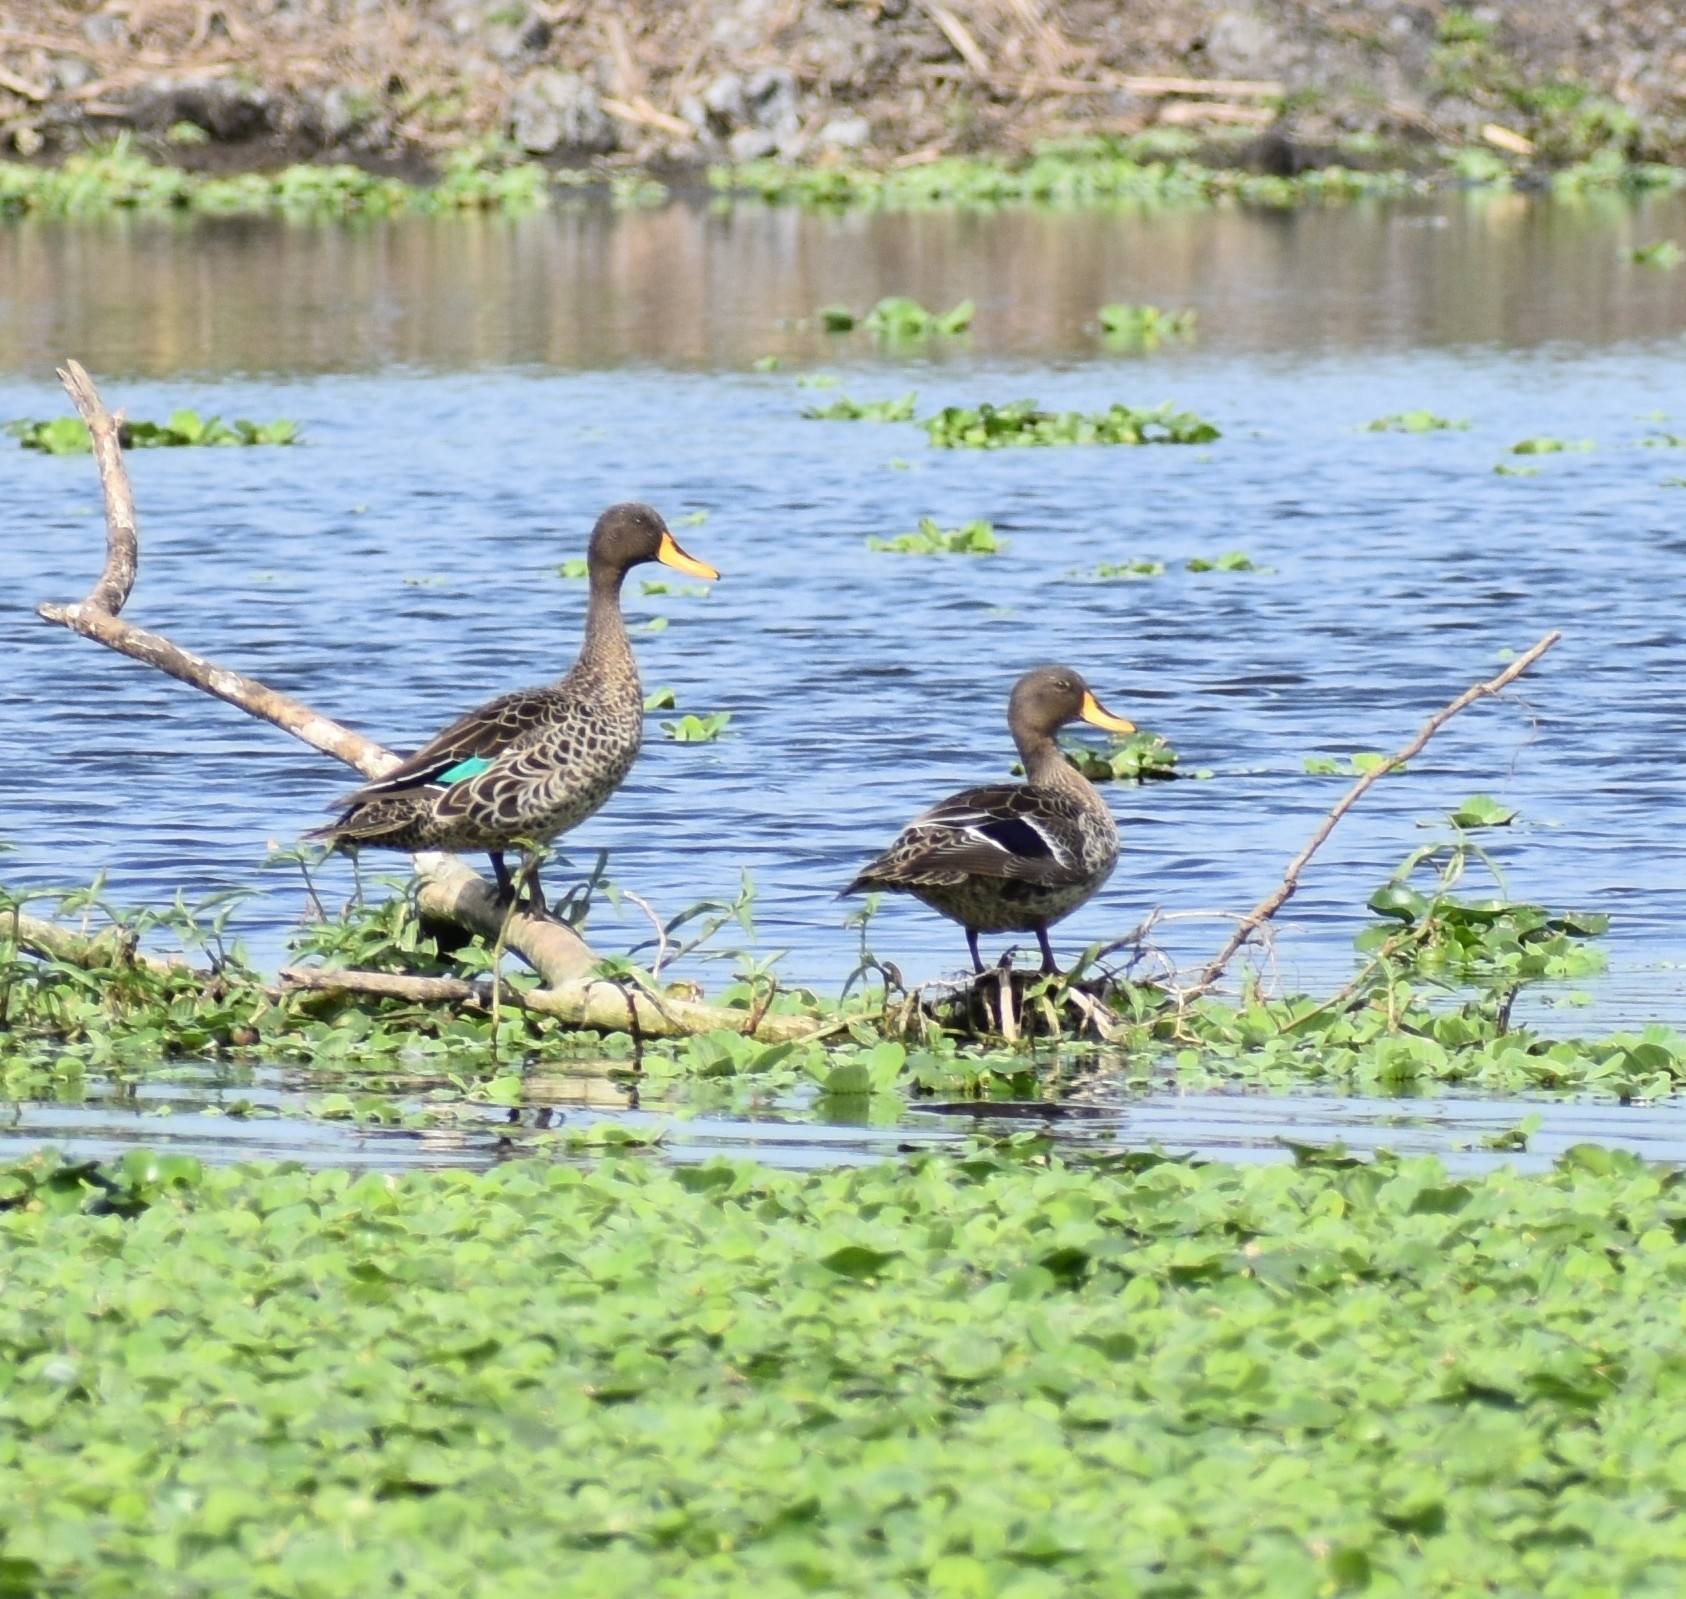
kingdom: Animalia
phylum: Chordata
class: Aves
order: Anseriformes
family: Anatidae
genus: Anas
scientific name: Anas undulata
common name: Yellow-billed duck
